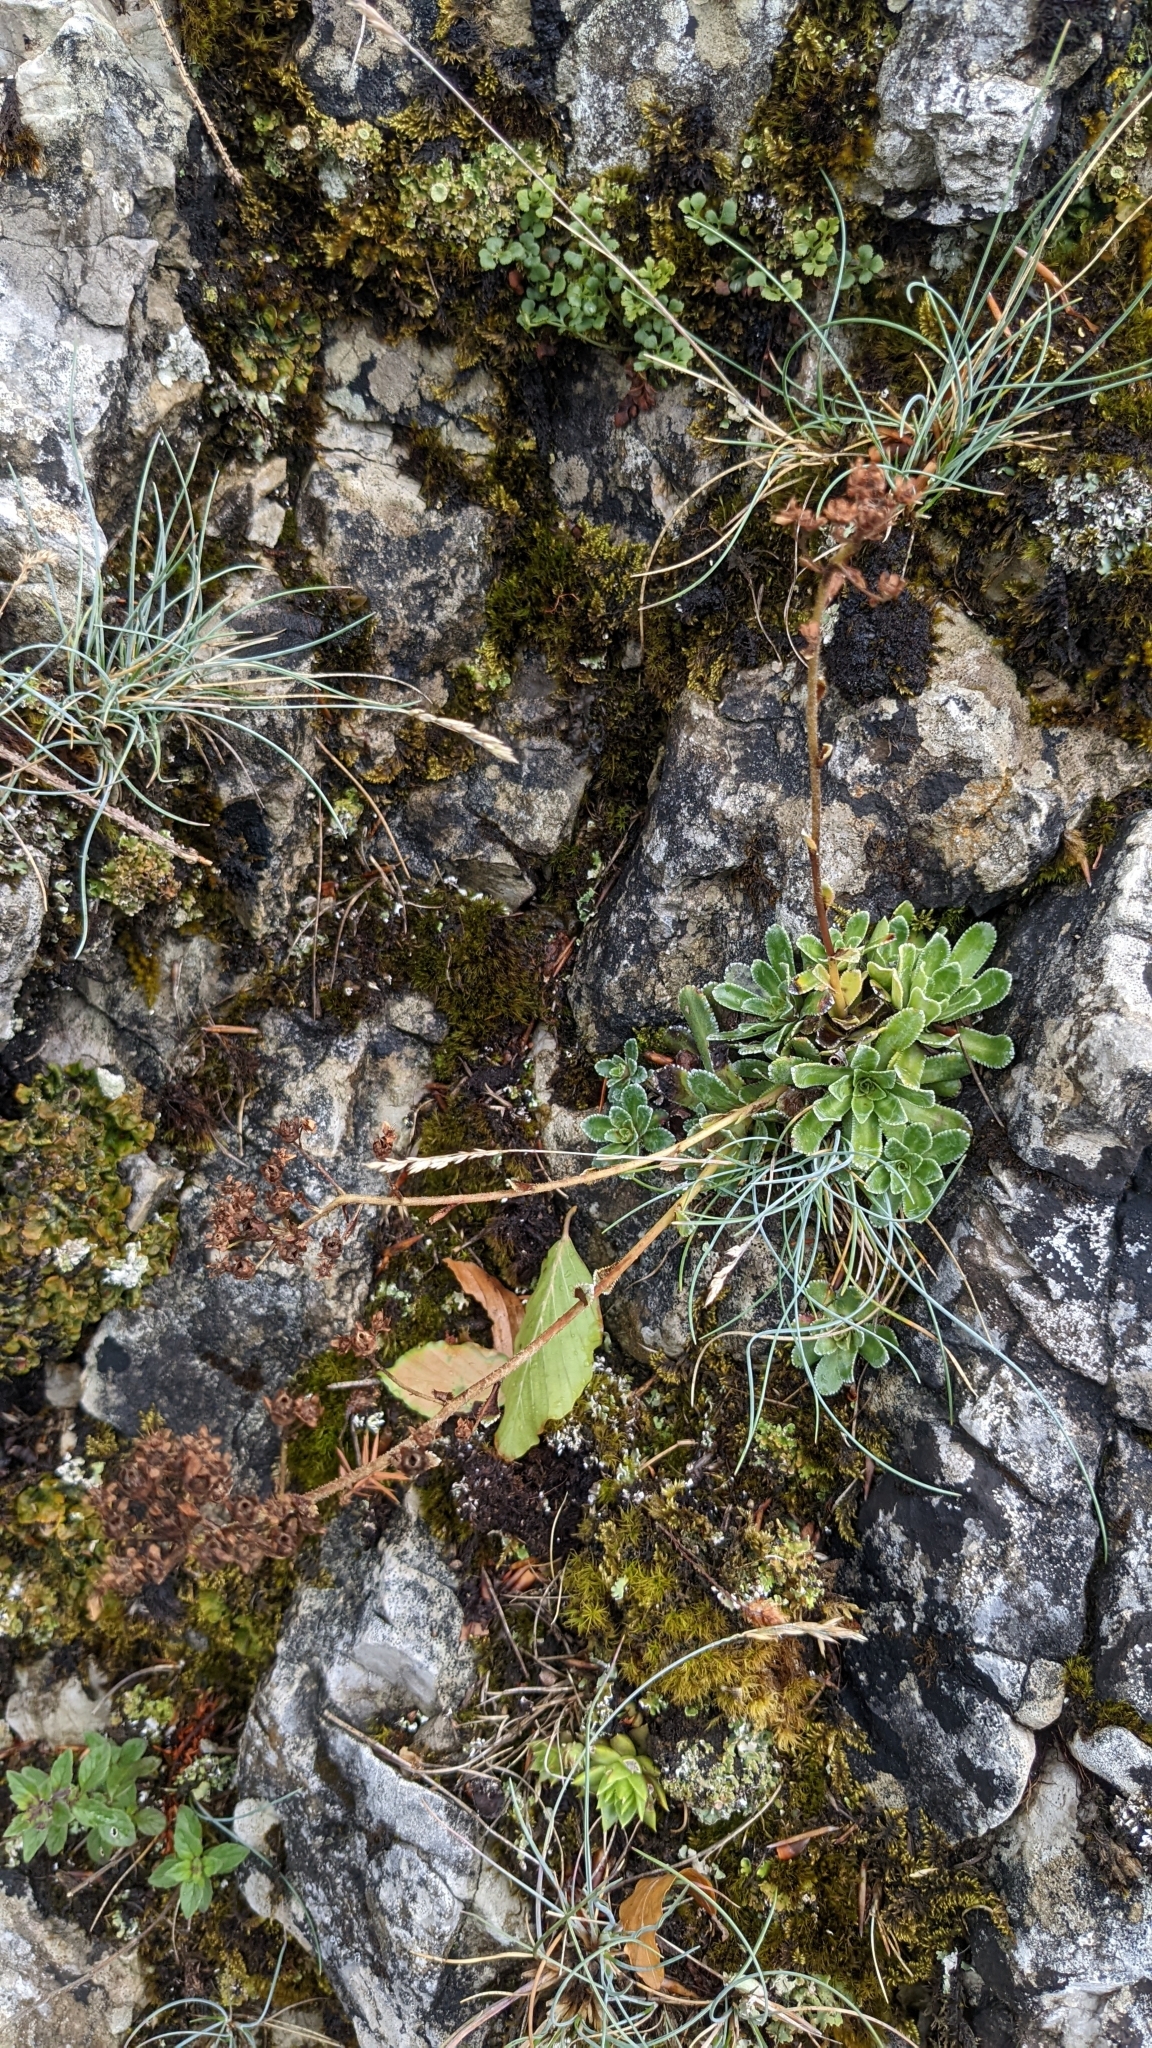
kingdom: Plantae
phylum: Tracheophyta
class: Magnoliopsida
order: Saxifragales
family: Saxifragaceae
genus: Saxifraga
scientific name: Saxifraga paniculata
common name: Livelong saxifrage
